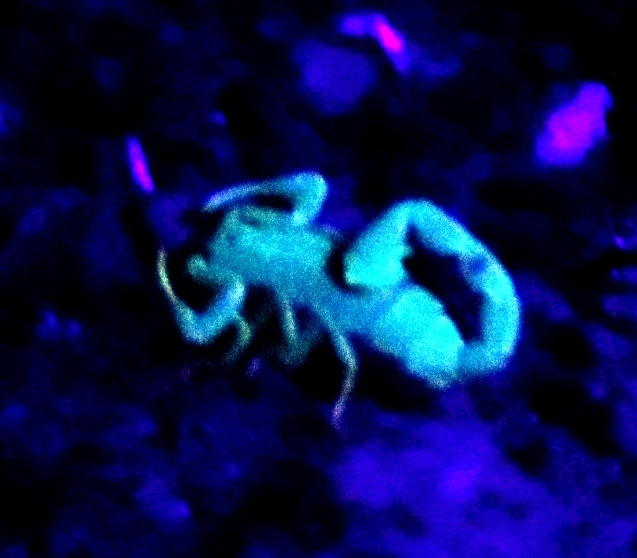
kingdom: Animalia
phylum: Arthropoda
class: Arachnida
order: Scorpiones
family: Buthidae
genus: Uroplectes
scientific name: Uroplectes lineatus
